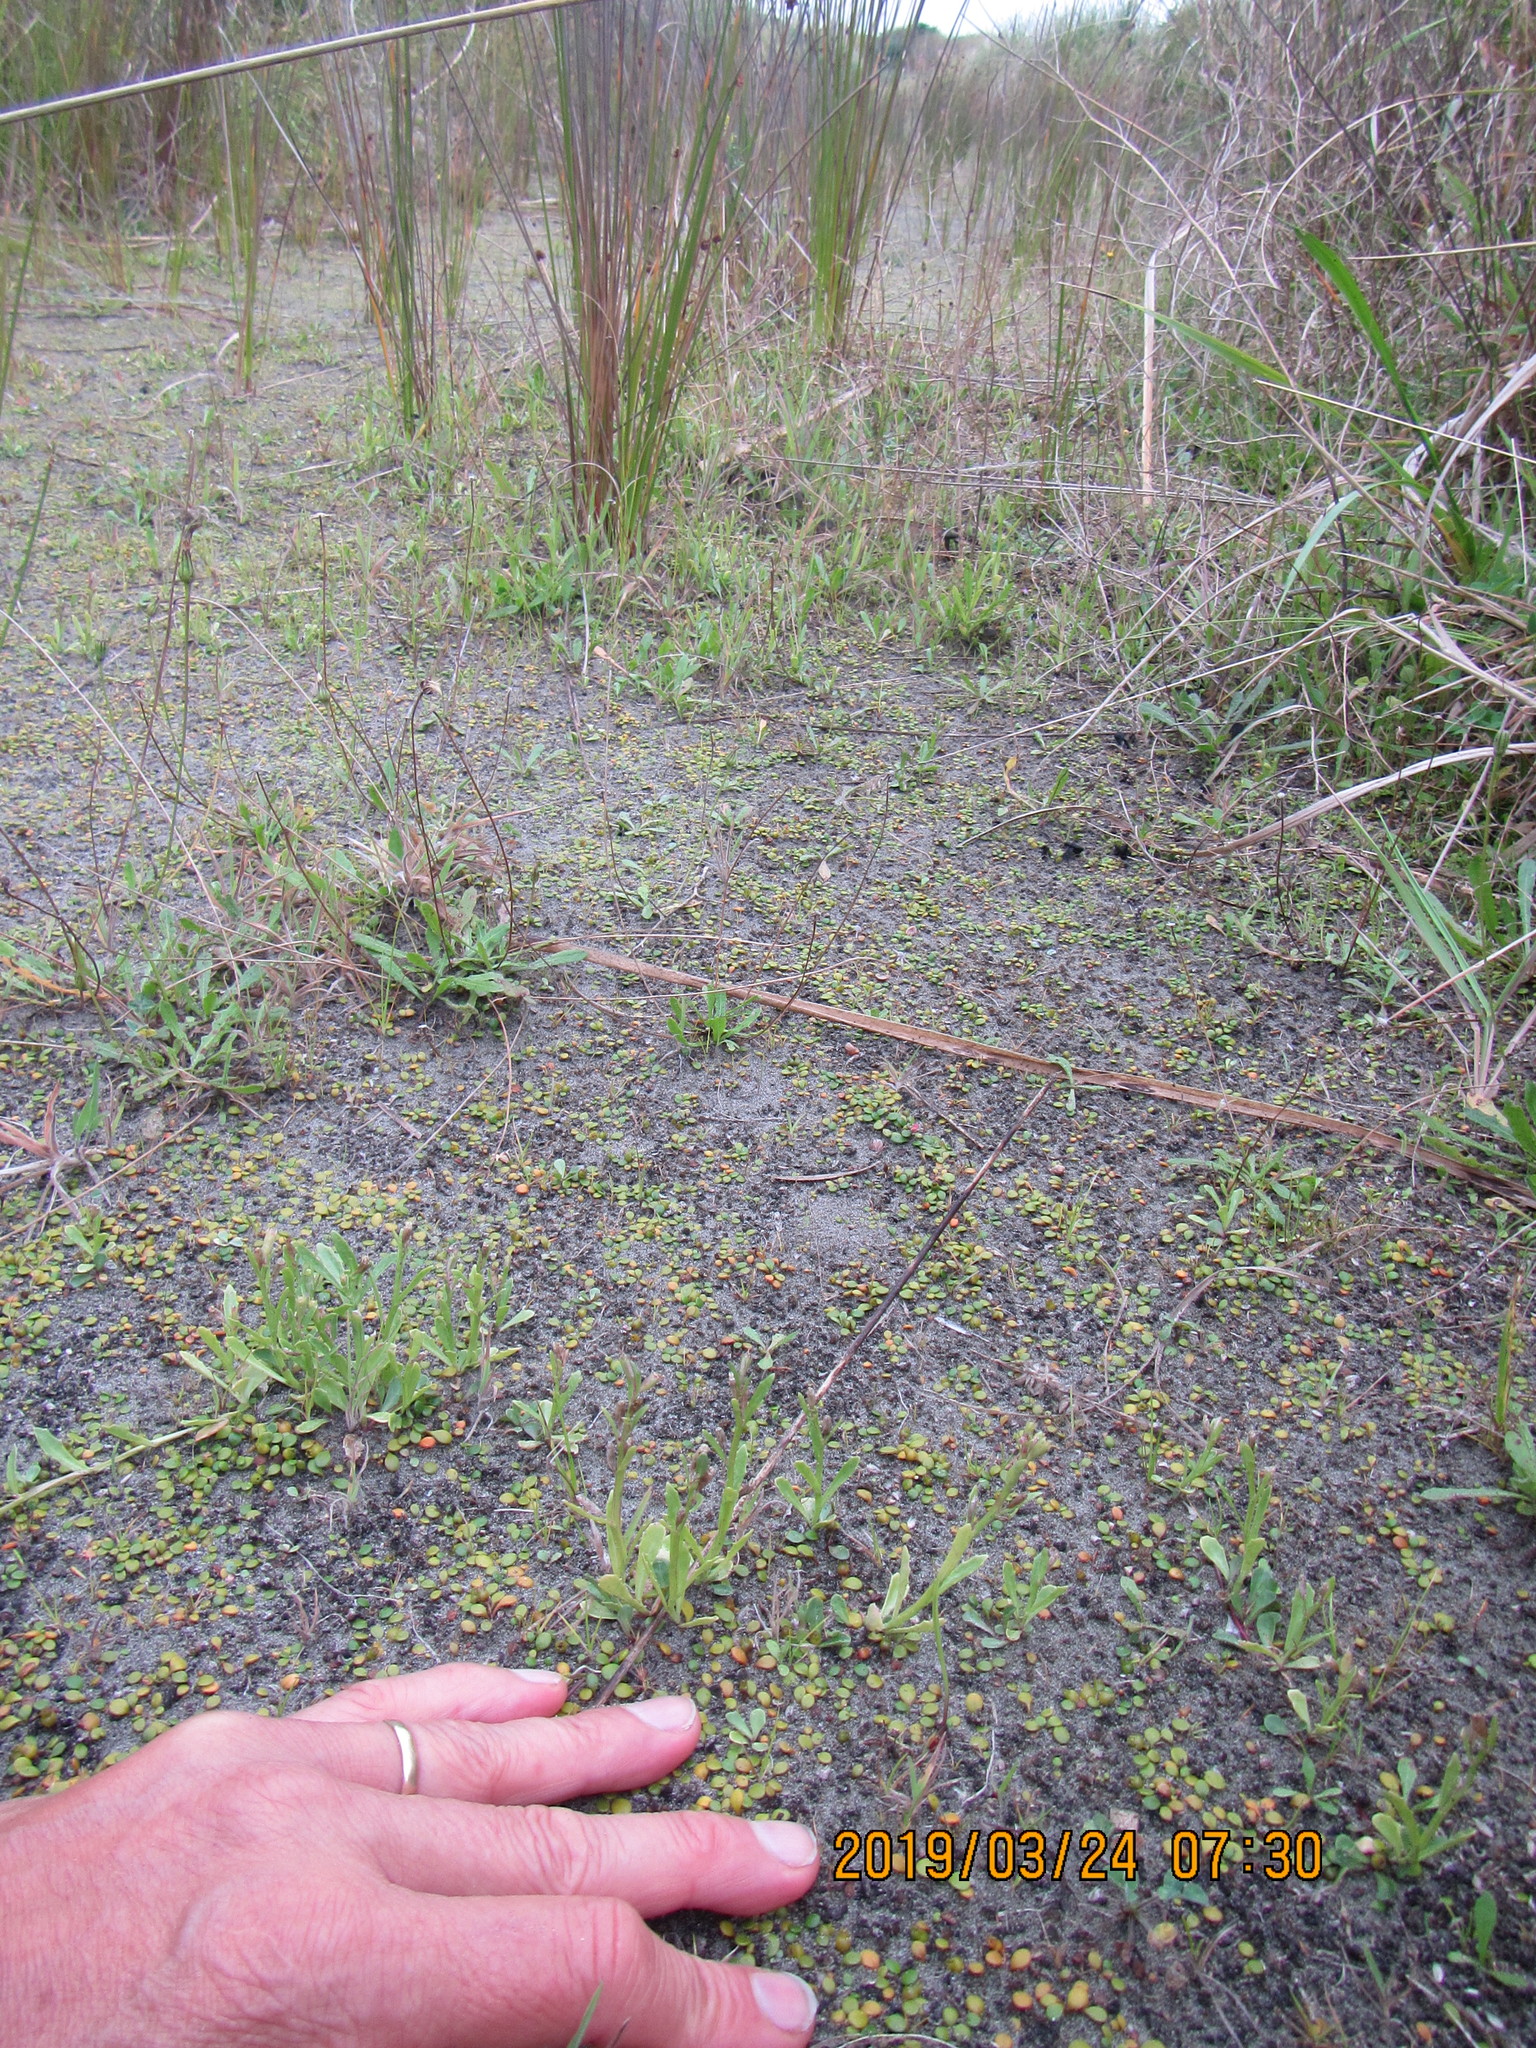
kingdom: Plantae
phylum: Tracheophyta
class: Magnoliopsida
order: Asterales
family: Campanulaceae
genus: Lobelia
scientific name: Lobelia anceps
